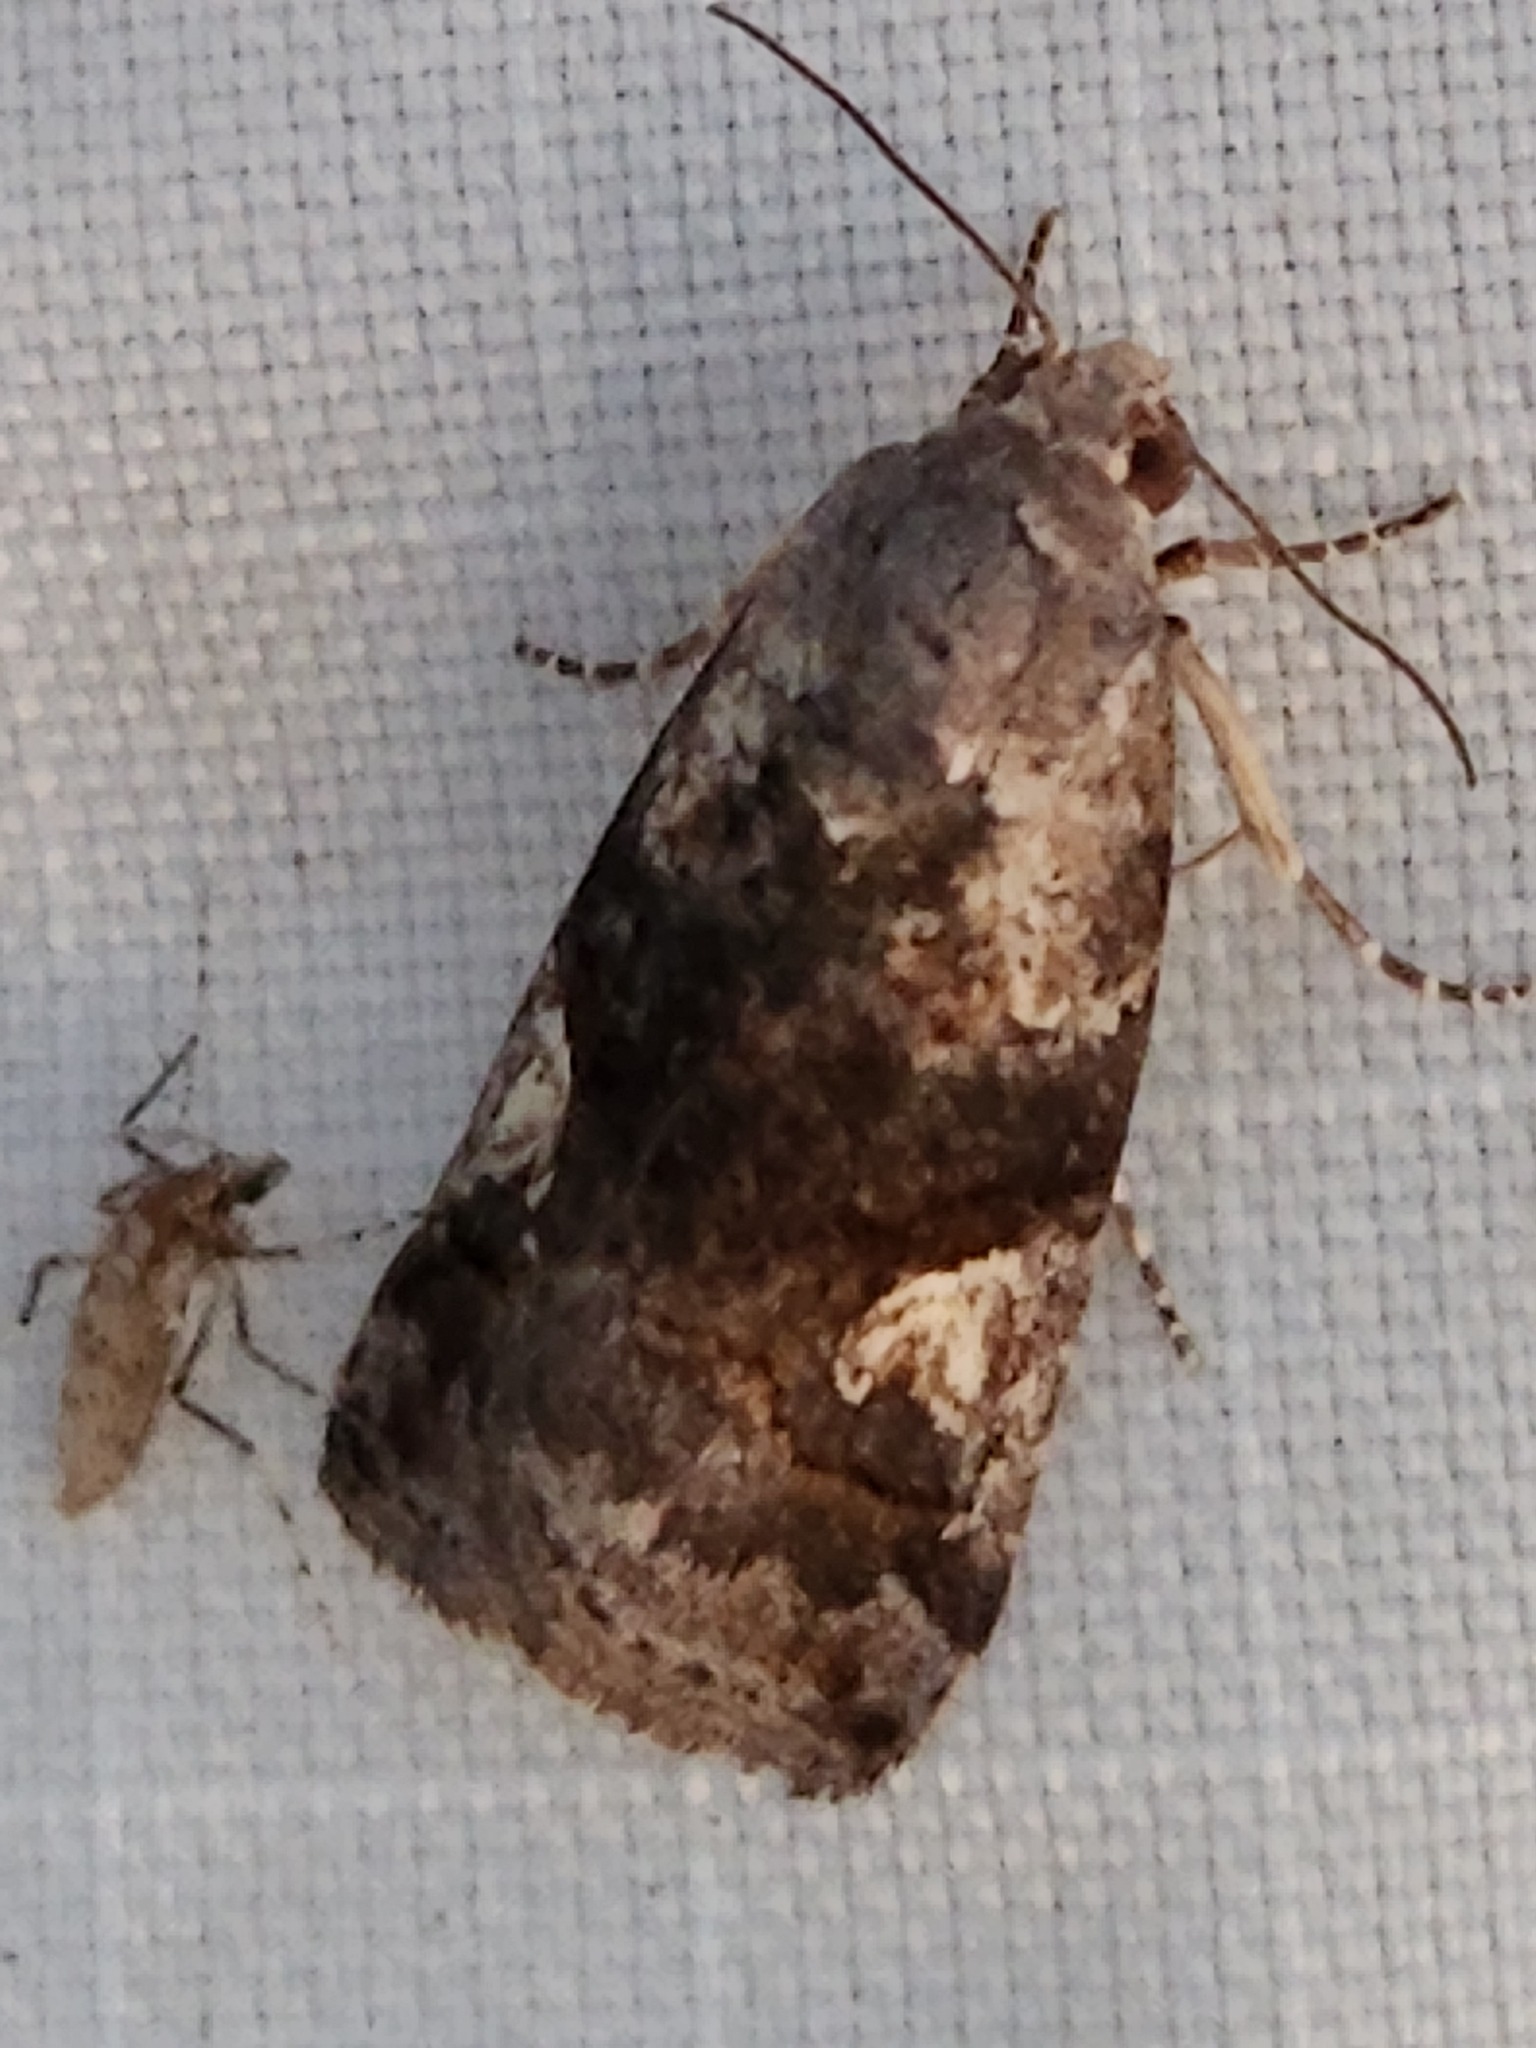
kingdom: Animalia
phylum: Arthropoda
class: Insecta
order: Lepidoptera
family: Noctuidae
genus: Metaponpneumata
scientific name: Metaponpneumata rogenhoferi
